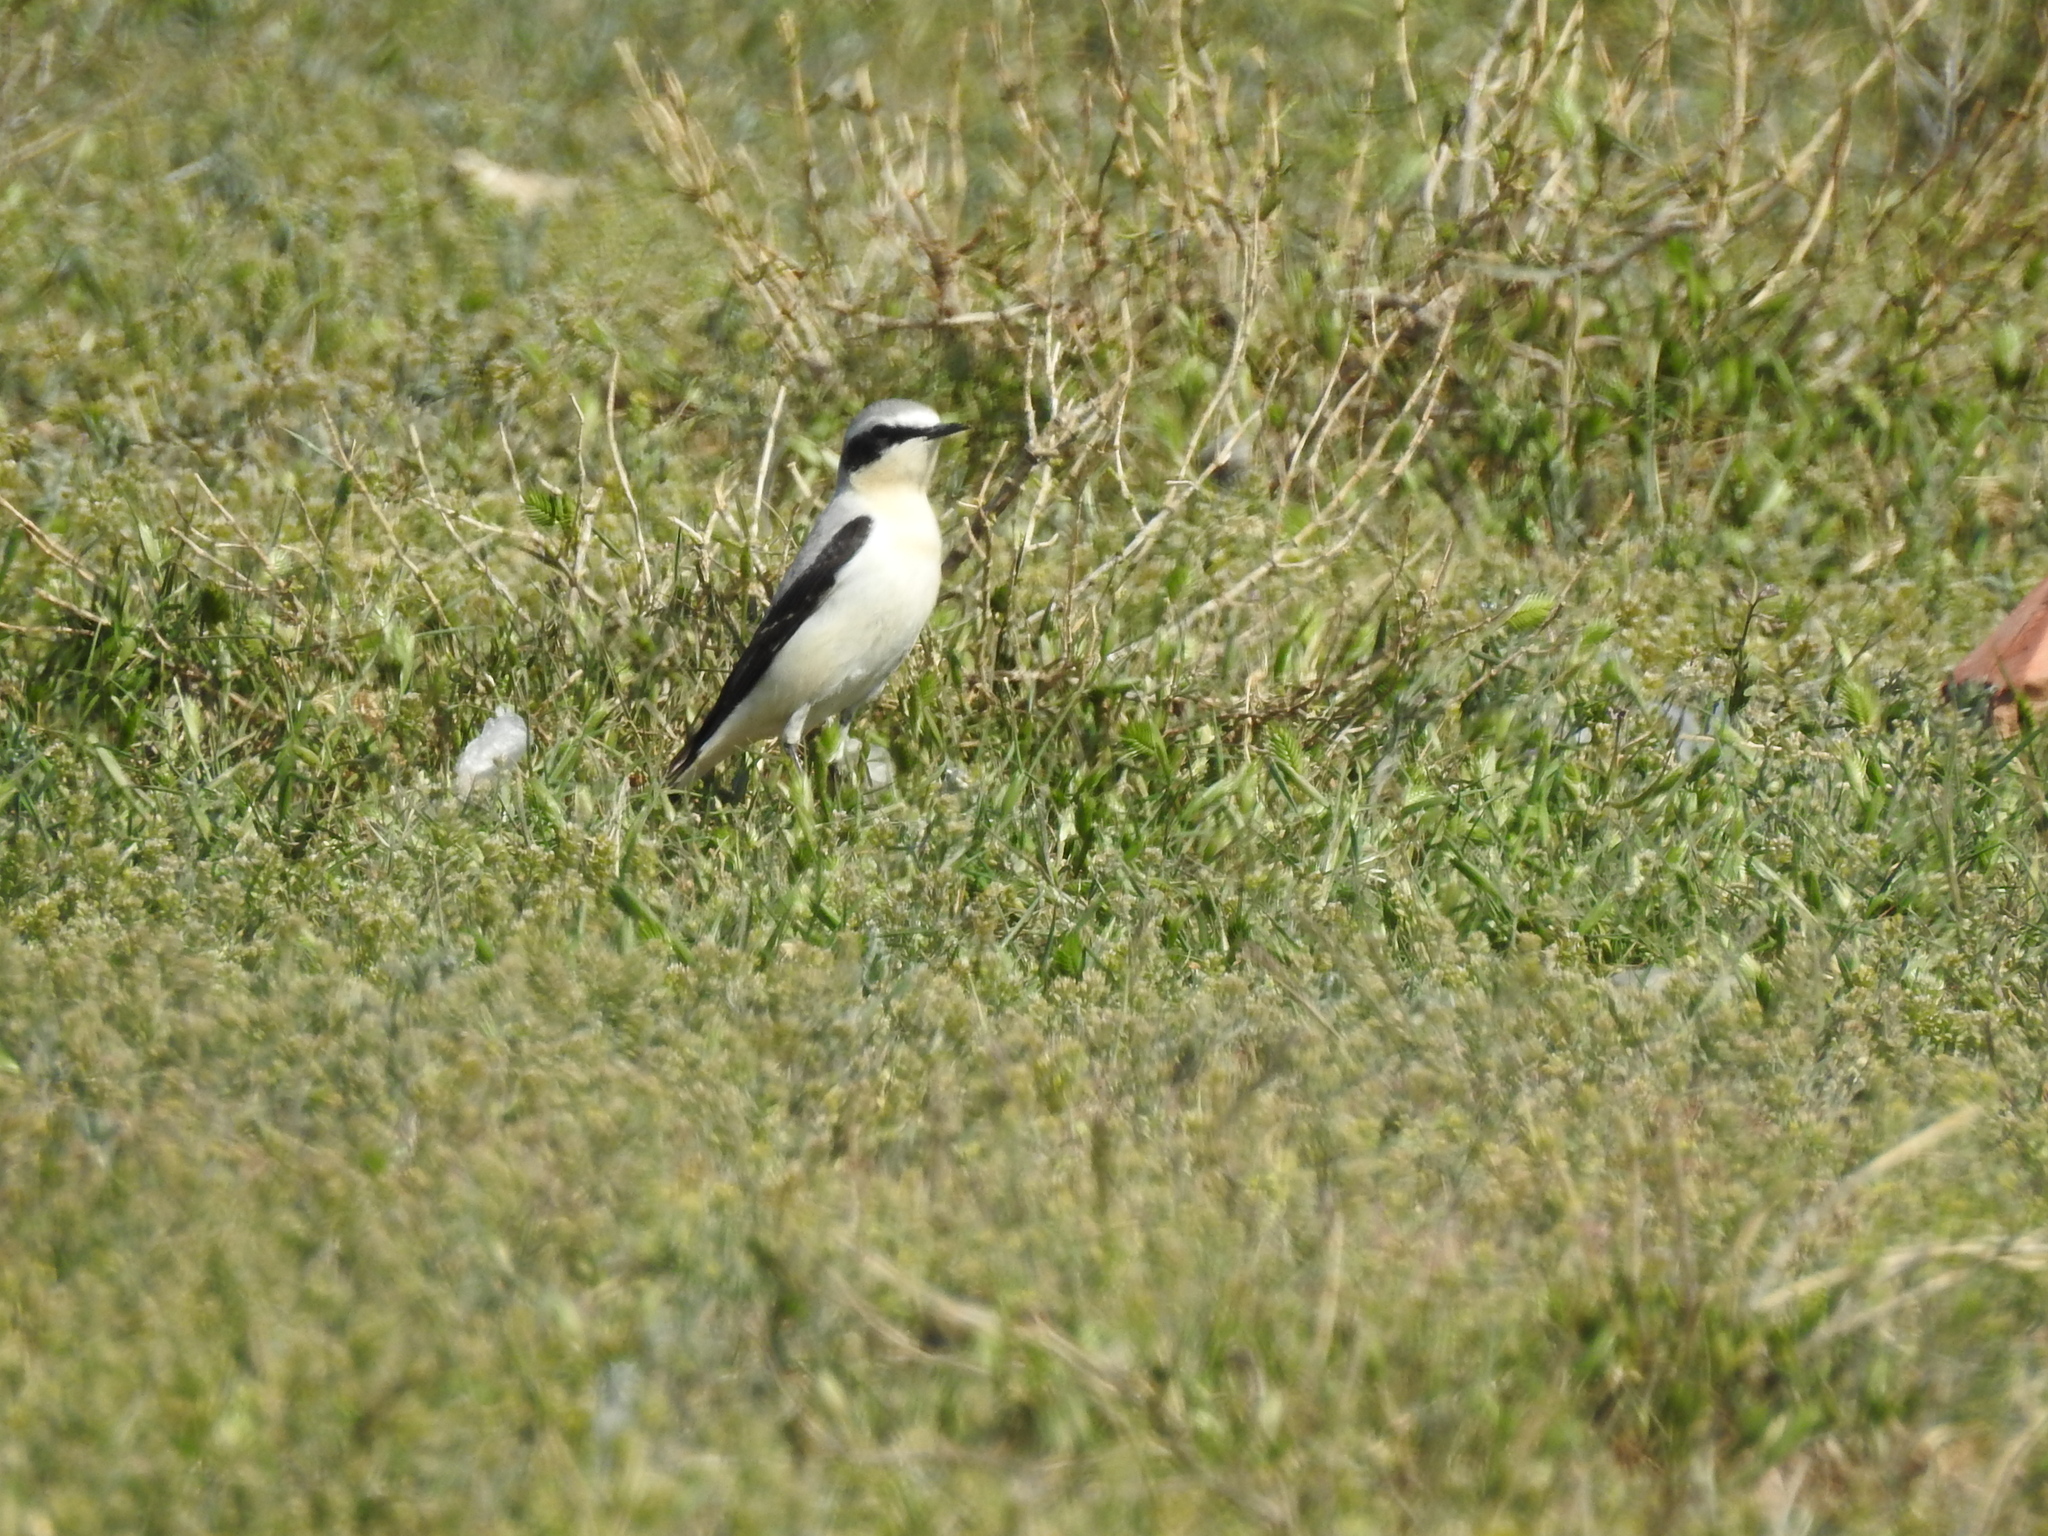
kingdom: Animalia
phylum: Chordata
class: Aves
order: Passeriformes
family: Muscicapidae
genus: Oenanthe
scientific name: Oenanthe oenanthe
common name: Northern wheatear
